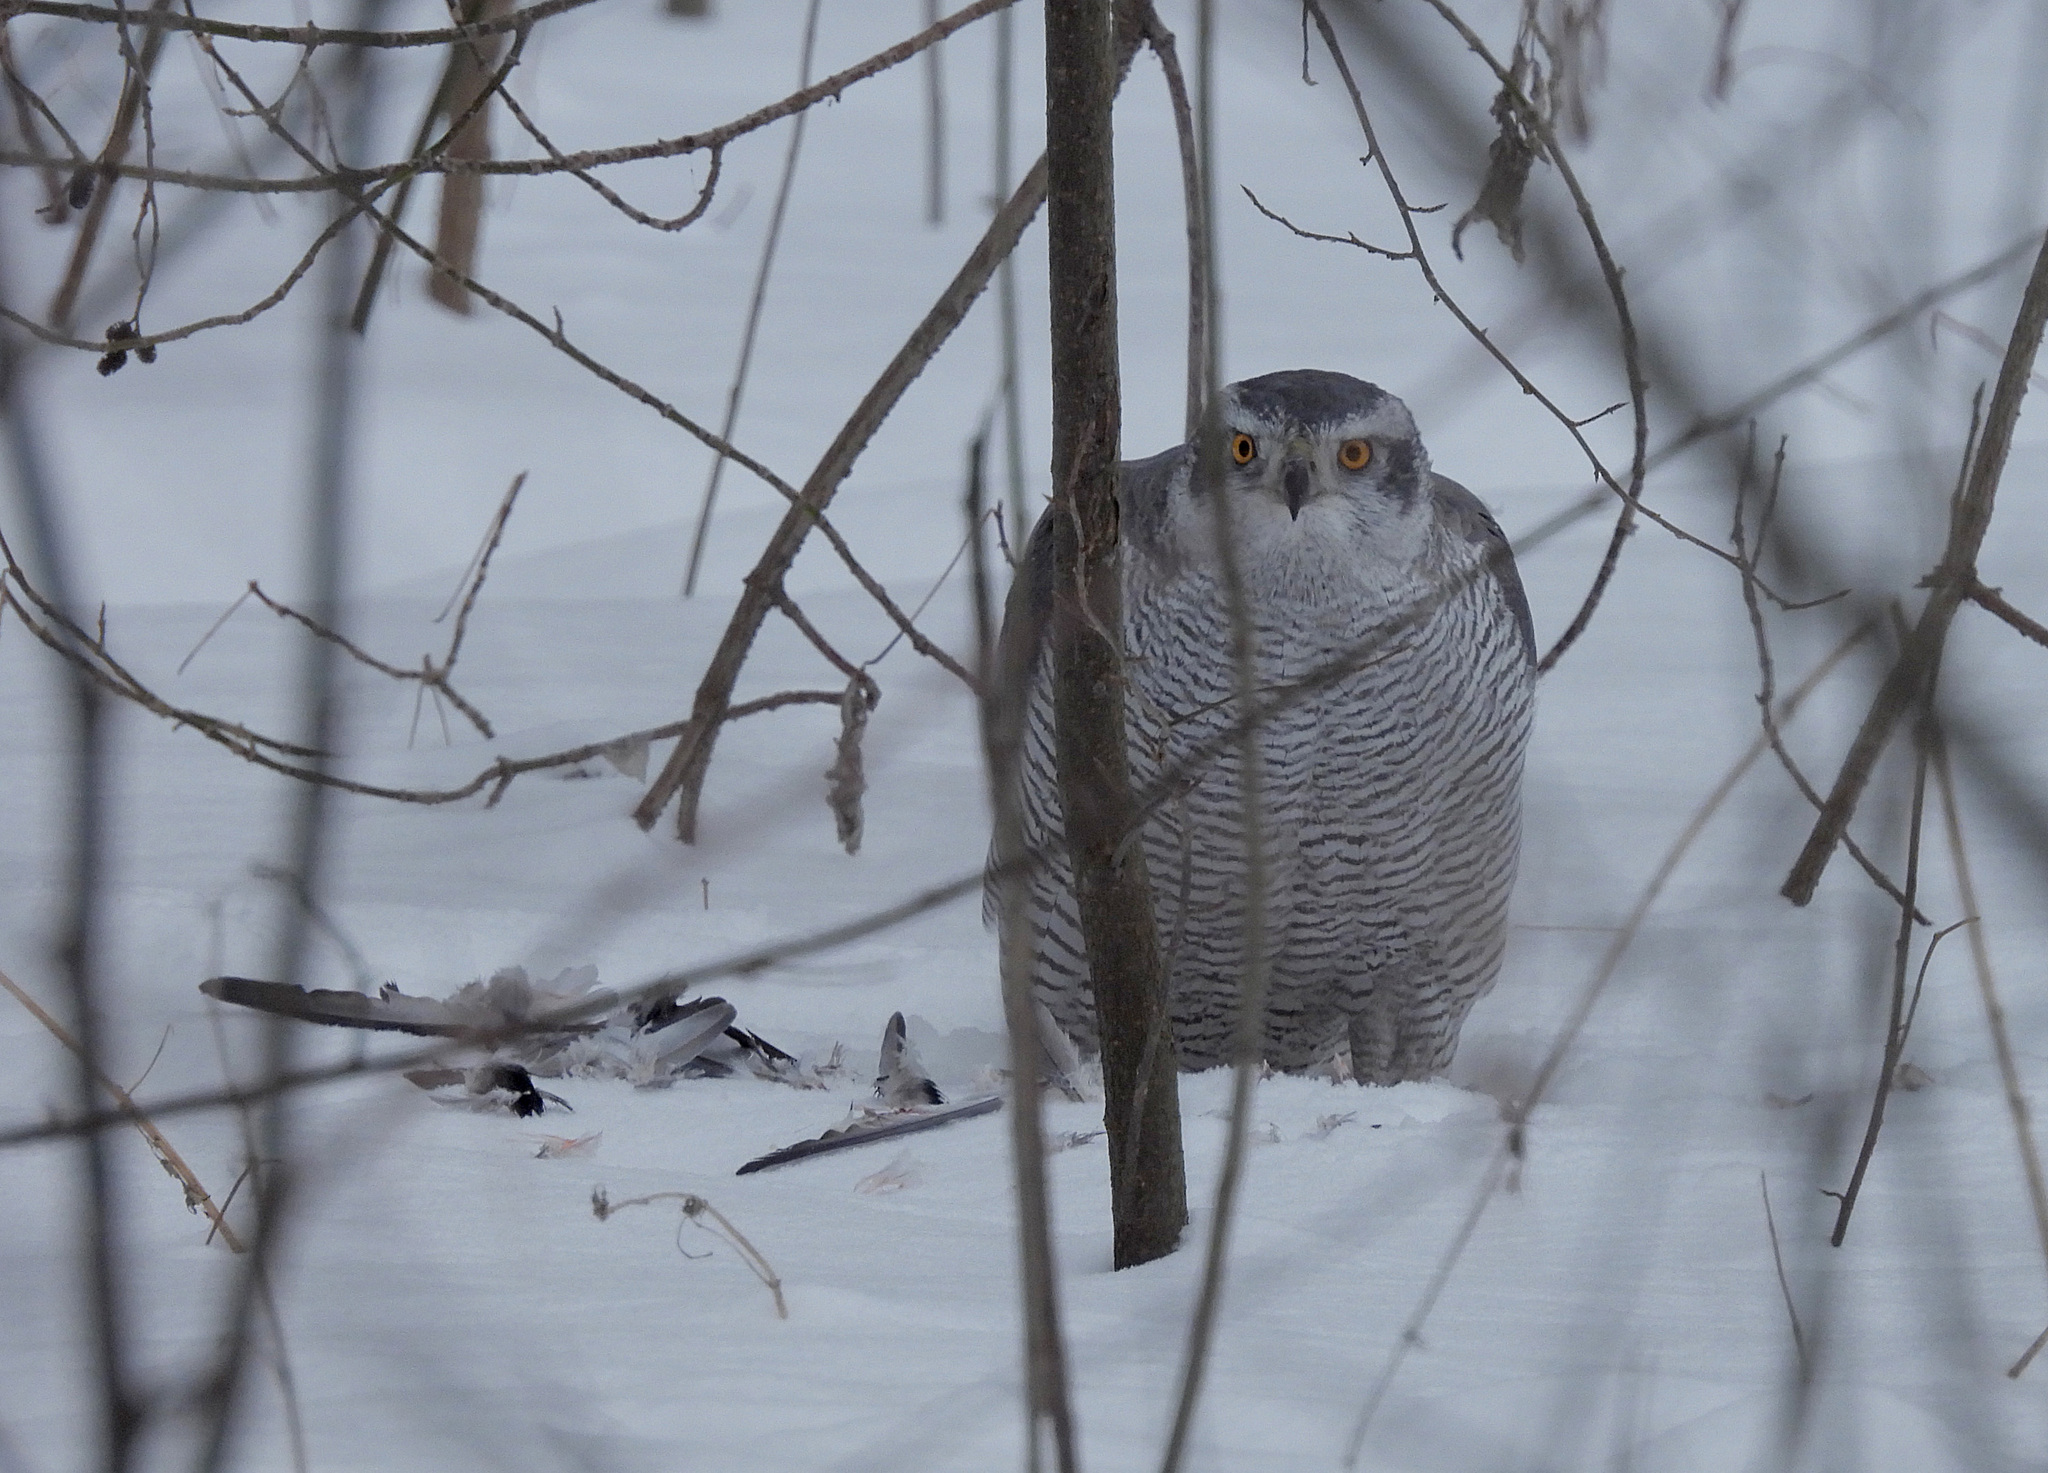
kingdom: Animalia
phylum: Chordata
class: Aves
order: Accipitriformes
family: Accipitridae
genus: Accipiter
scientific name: Accipiter gentilis
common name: Northern goshawk
